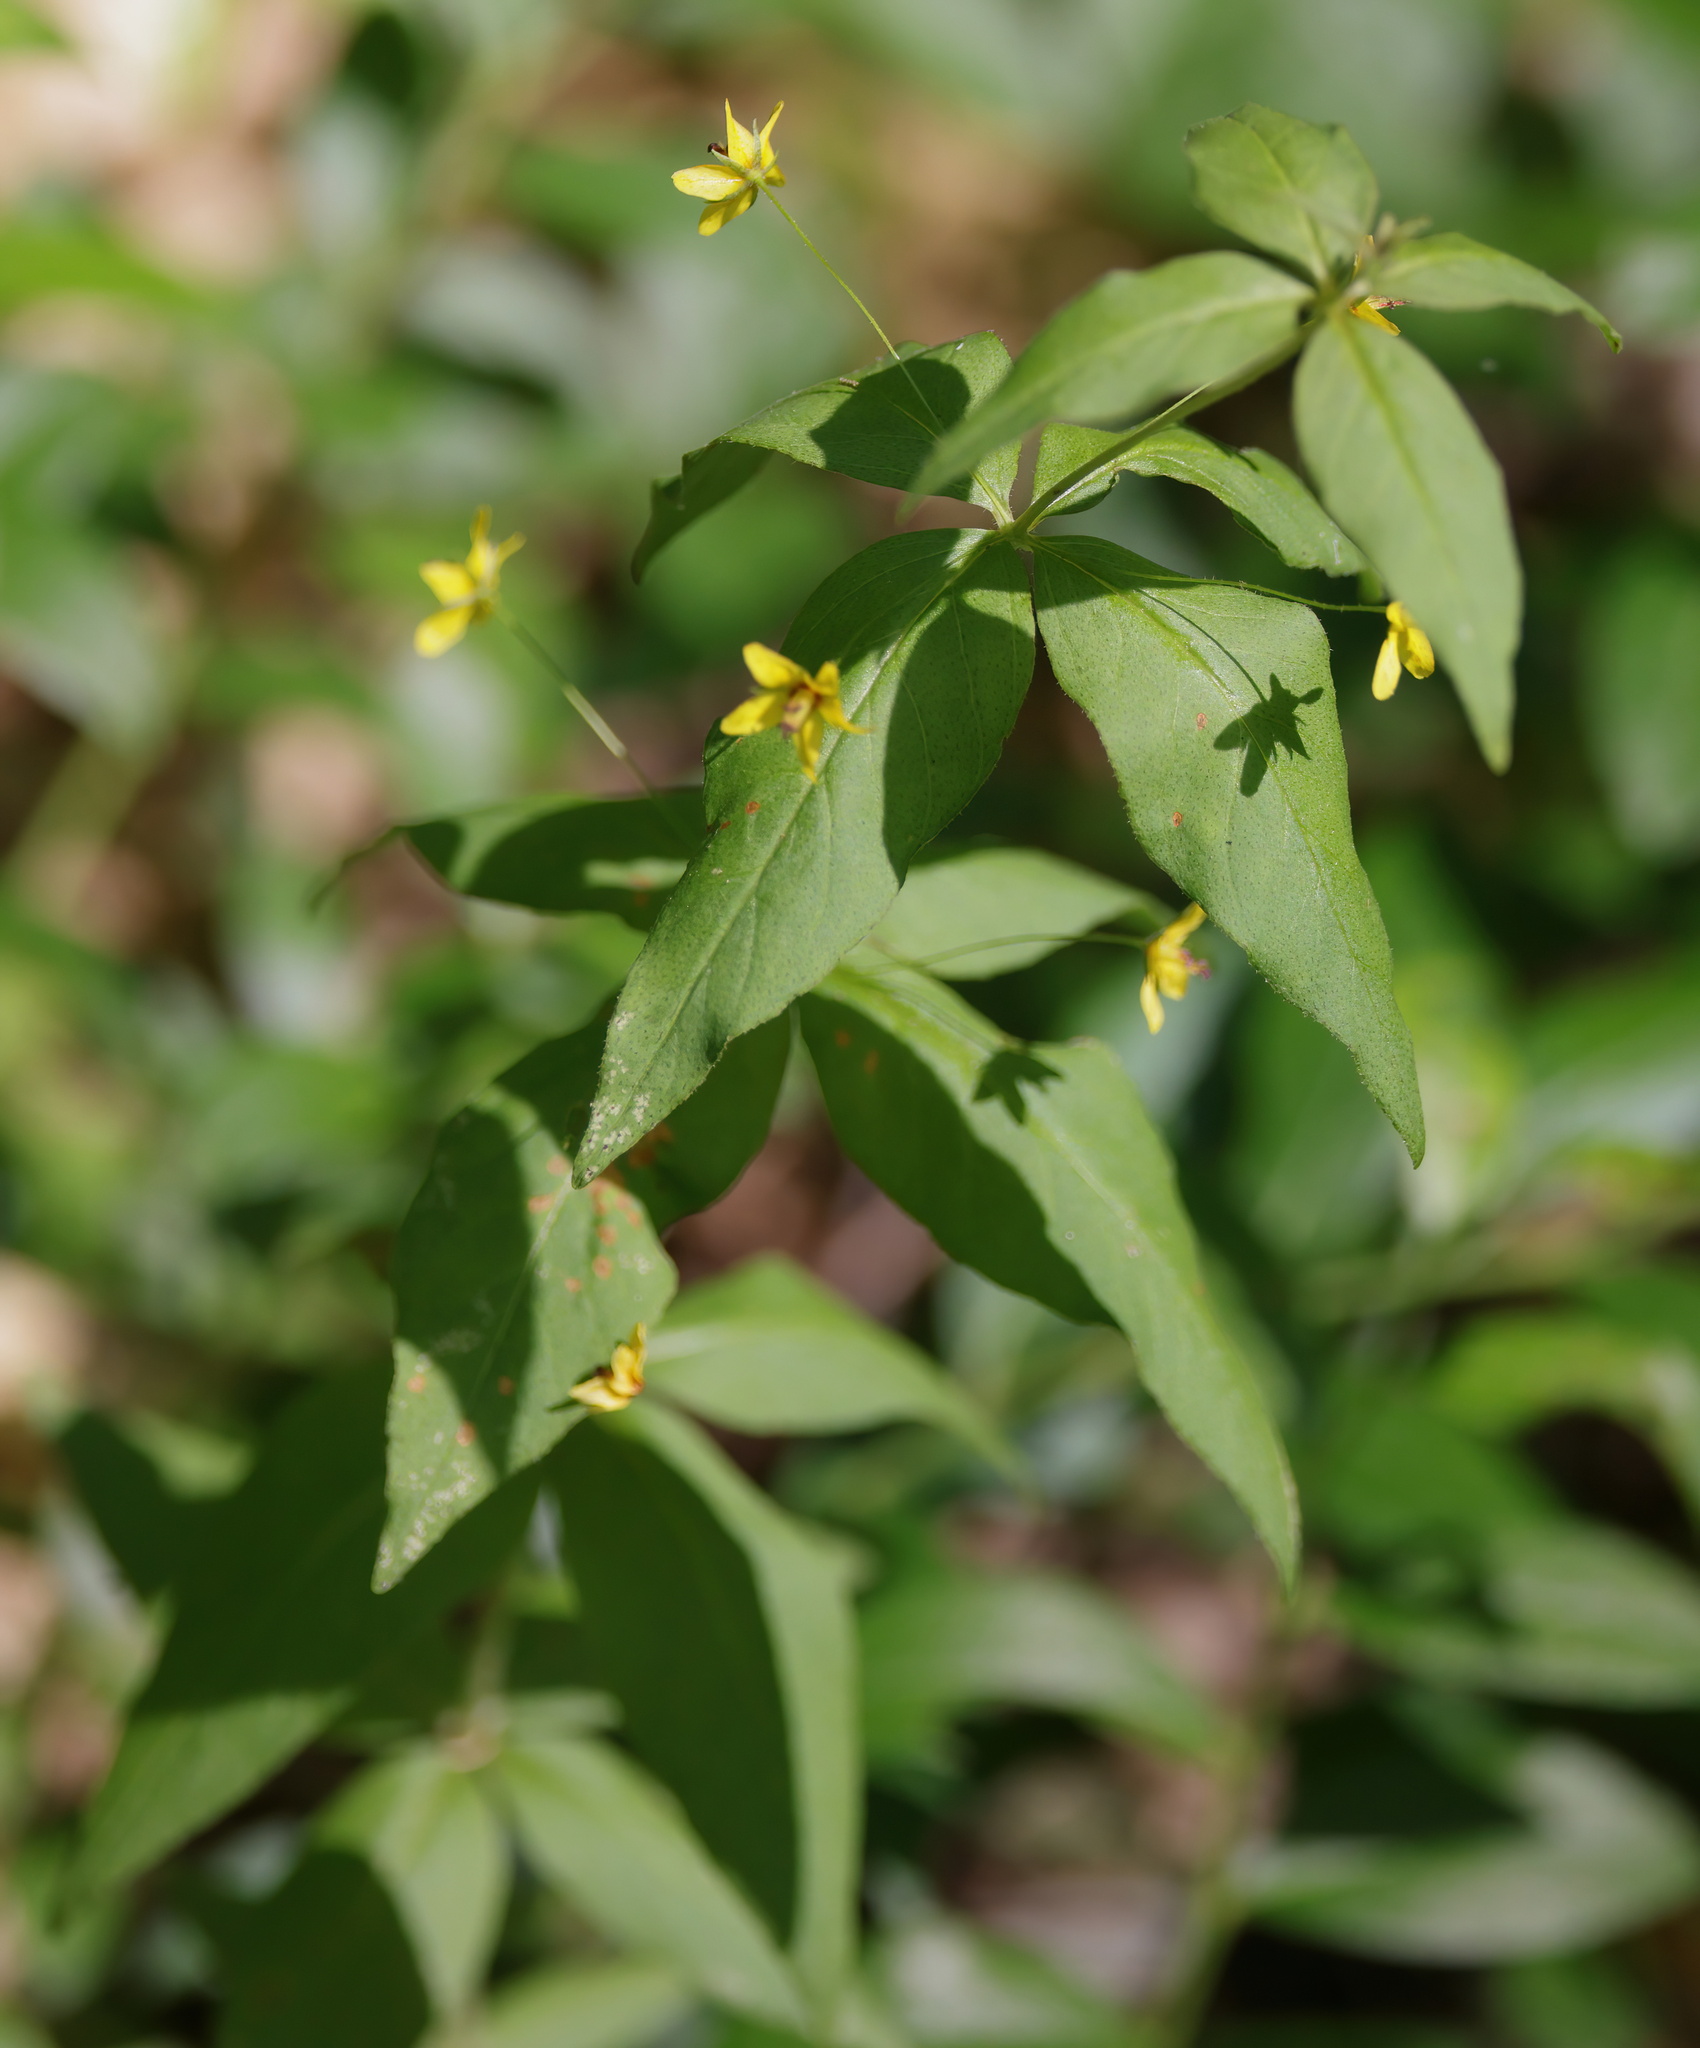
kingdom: Plantae
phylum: Tracheophyta
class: Magnoliopsida
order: Ericales
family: Primulaceae
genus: Lysimachia
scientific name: Lysimachia quadrifolia
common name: Whorled loosestrife
